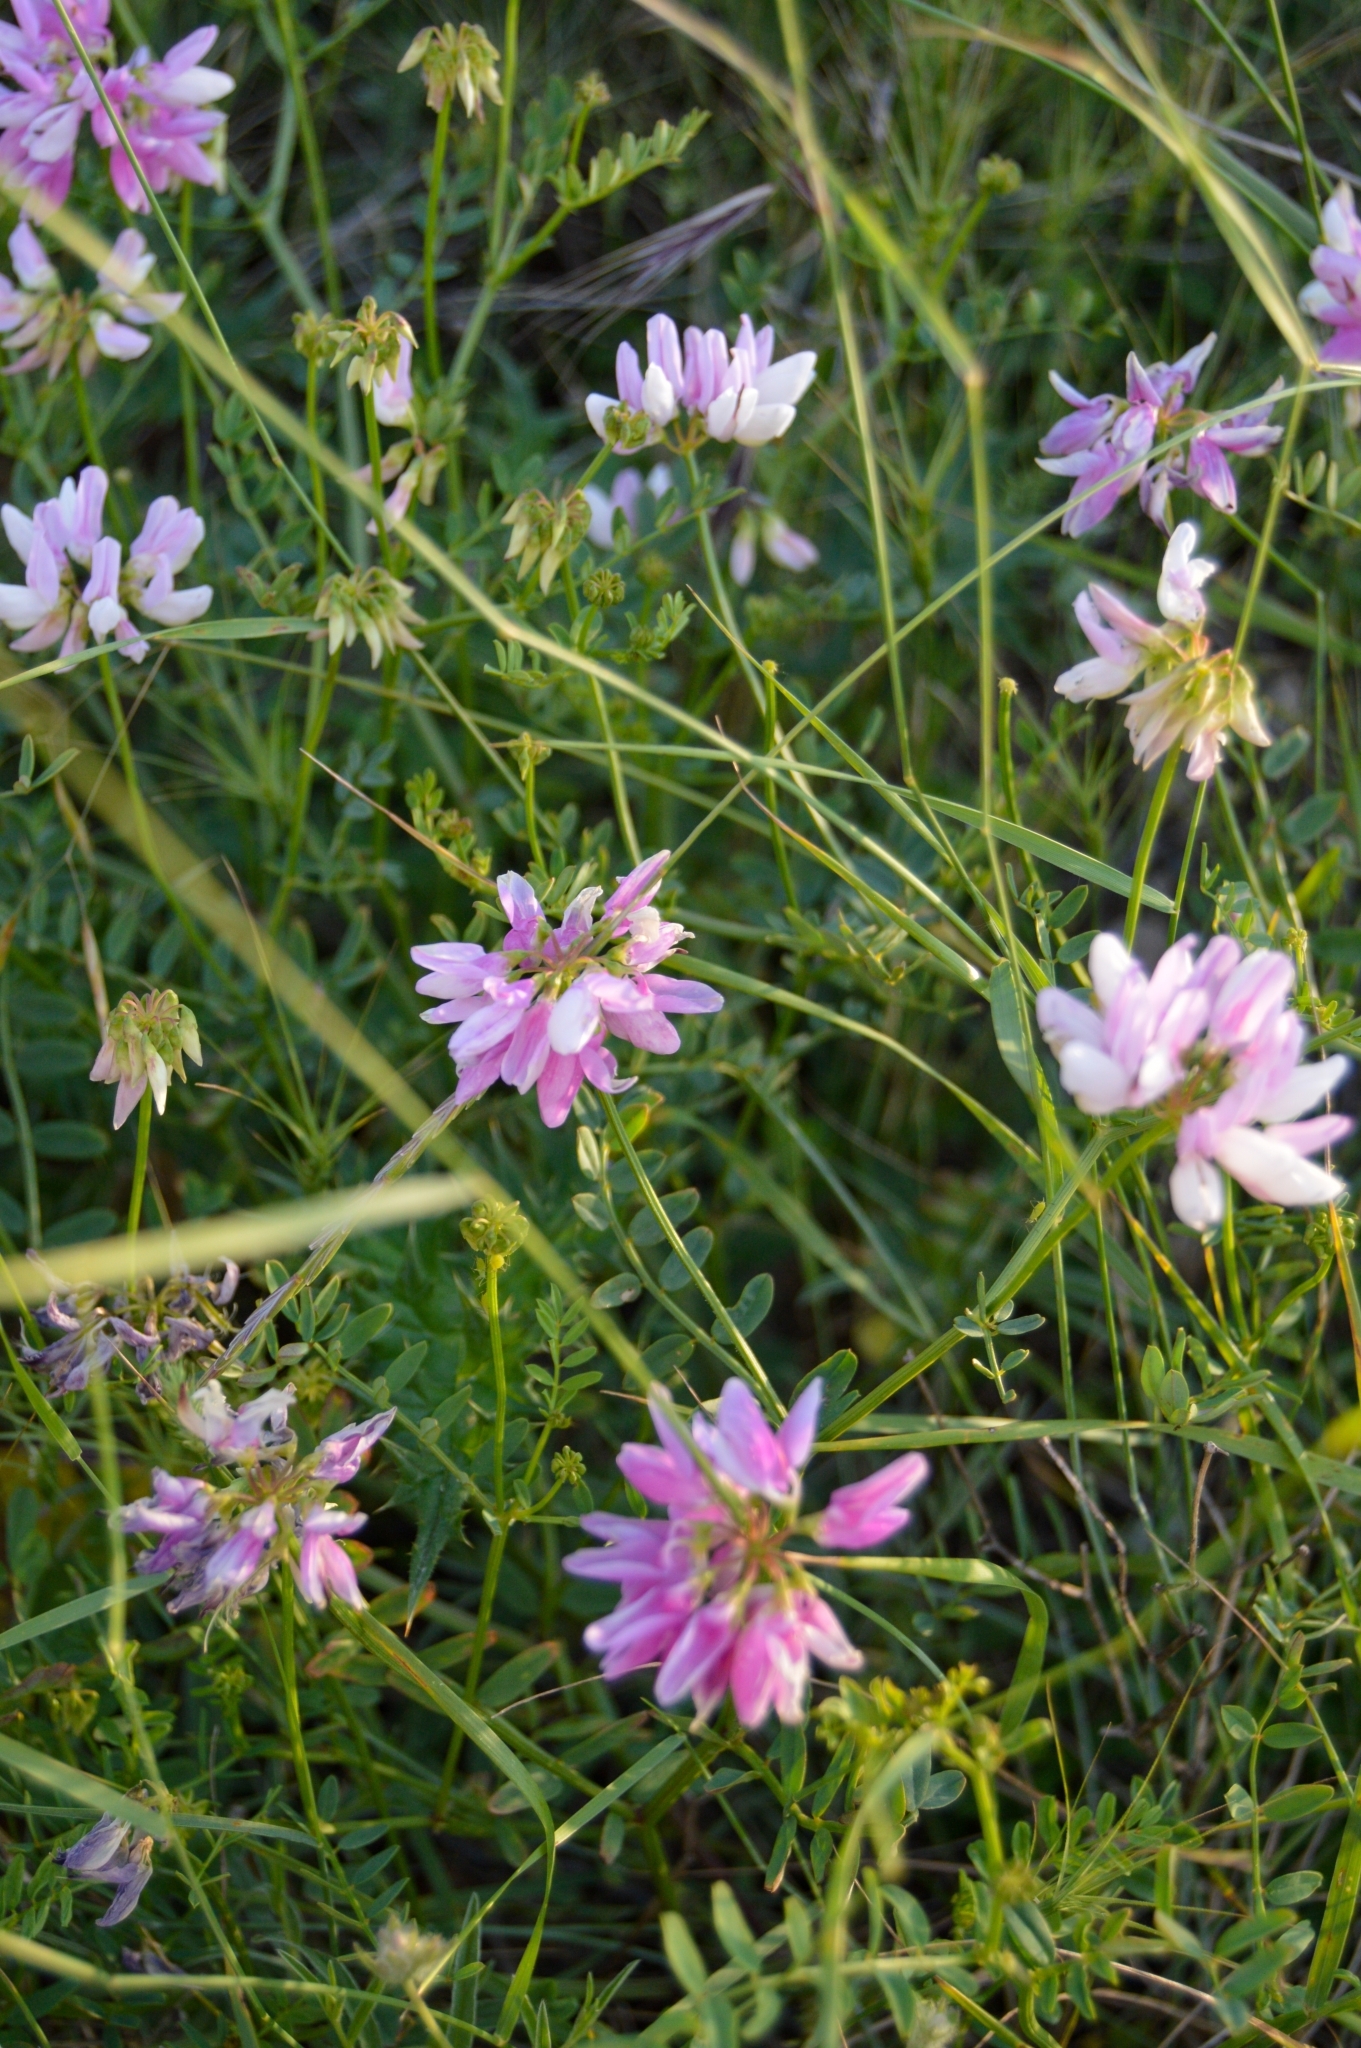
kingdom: Plantae
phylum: Tracheophyta
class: Magnoliopsida
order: Fabales
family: Fabaceae
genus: Coronilla
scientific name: Coronilla varia
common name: Crownvetch
